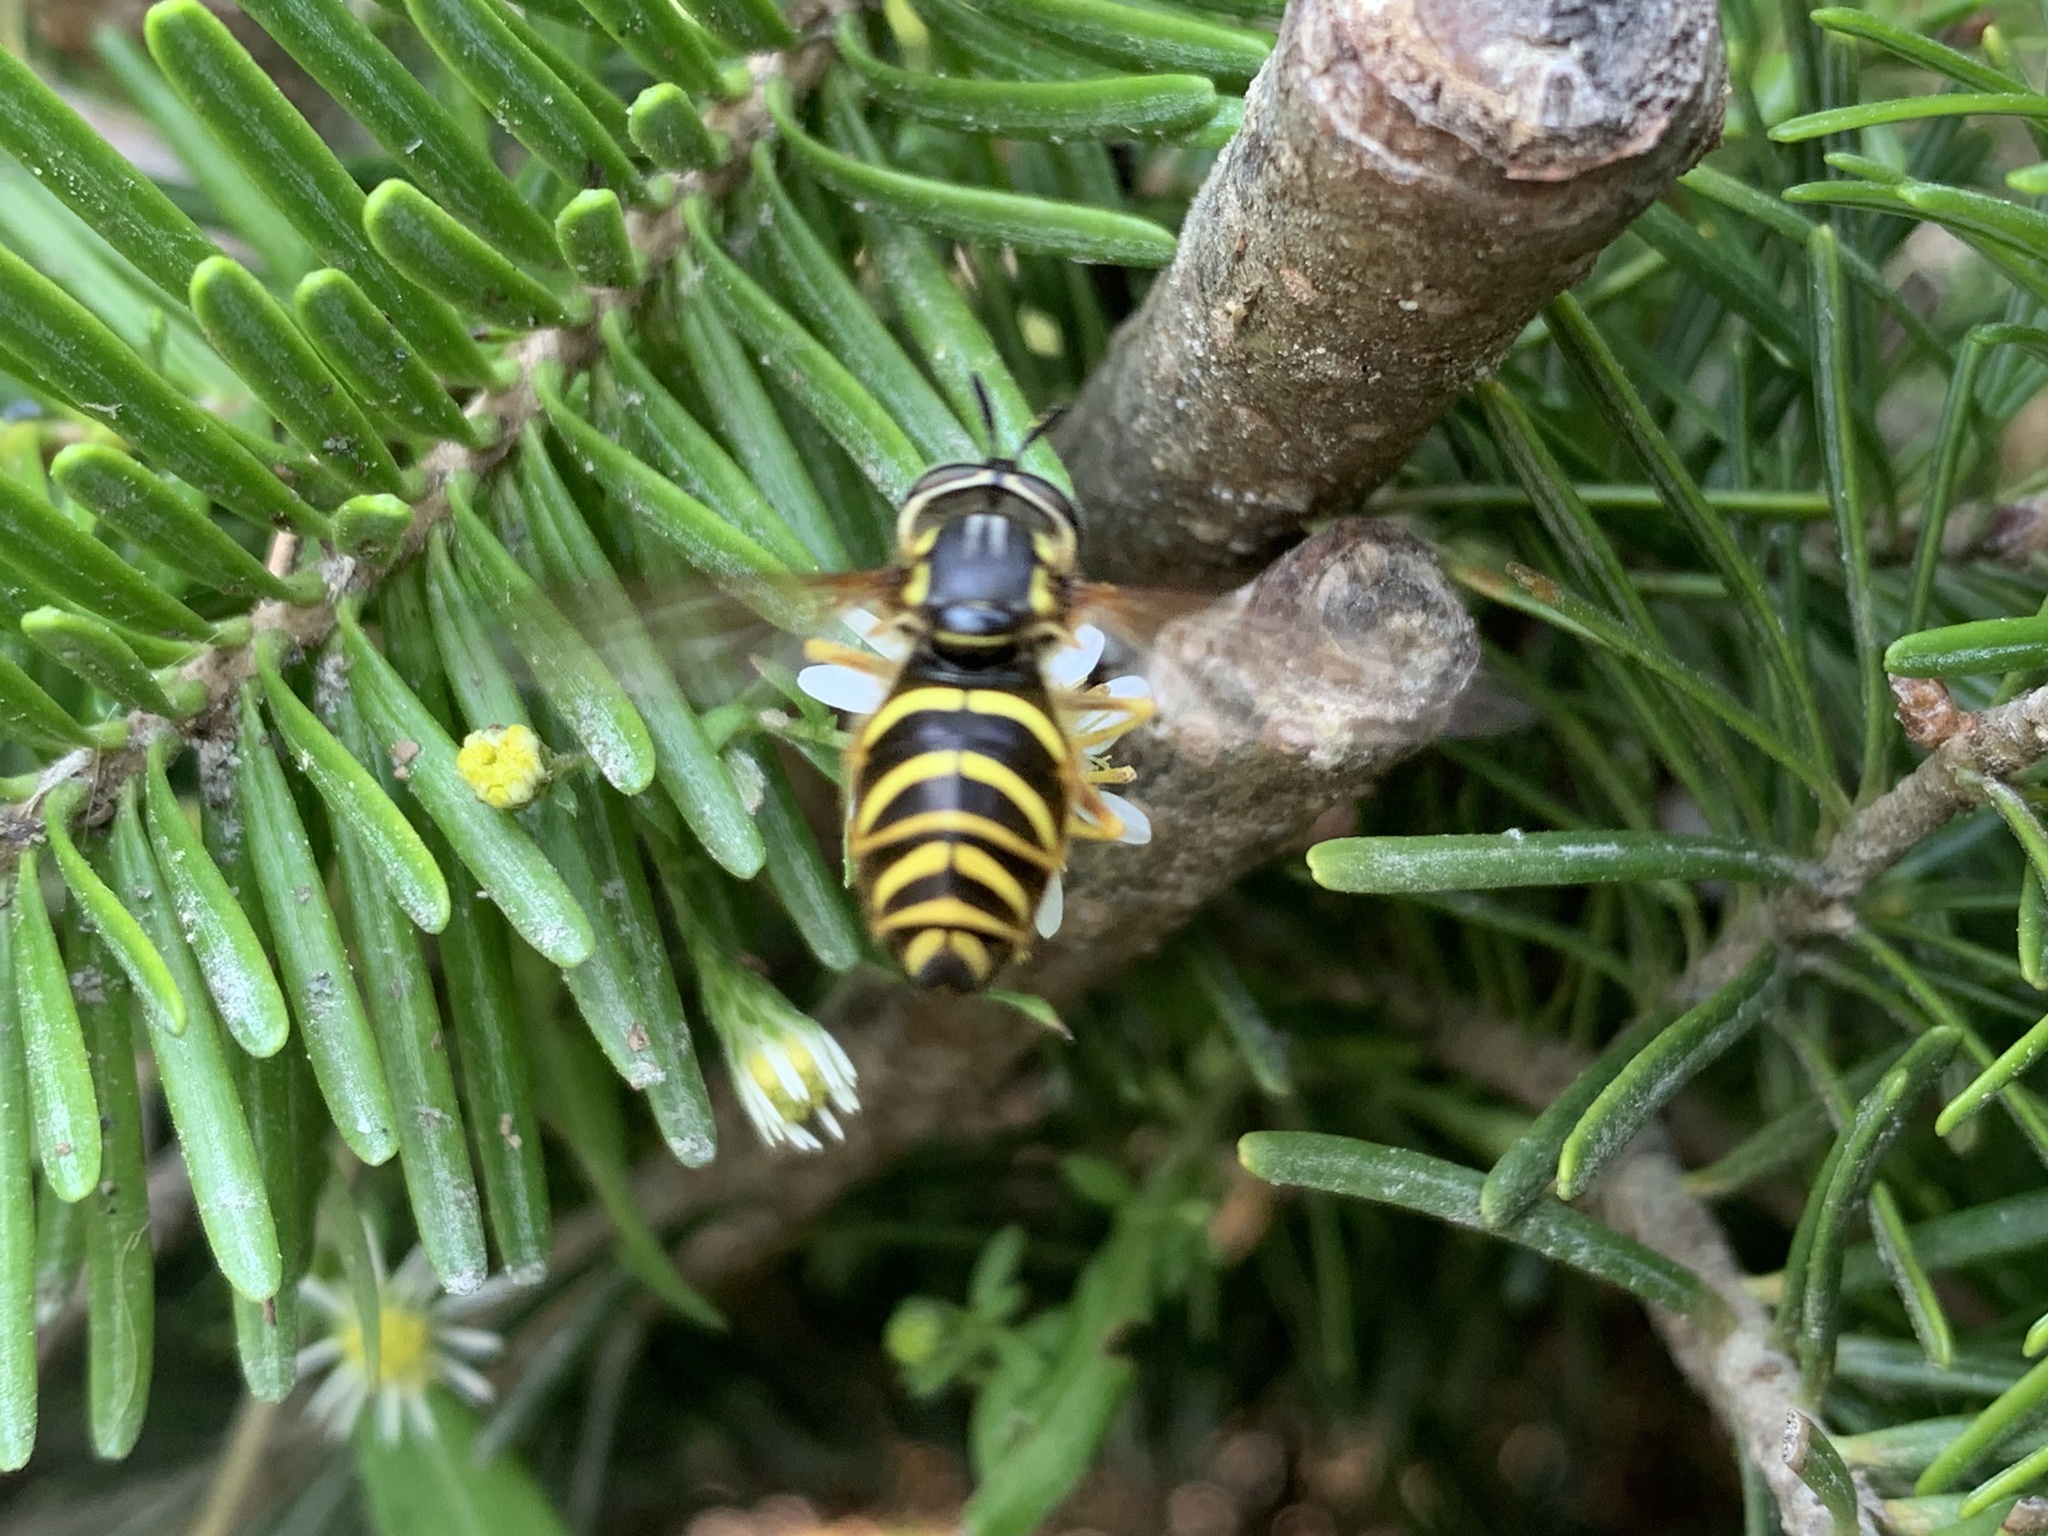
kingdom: Animalia
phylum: Arthropoda
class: Insecta
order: Diptera
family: Syrphidae
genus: Chrysotoxum
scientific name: Chrysotoxum
